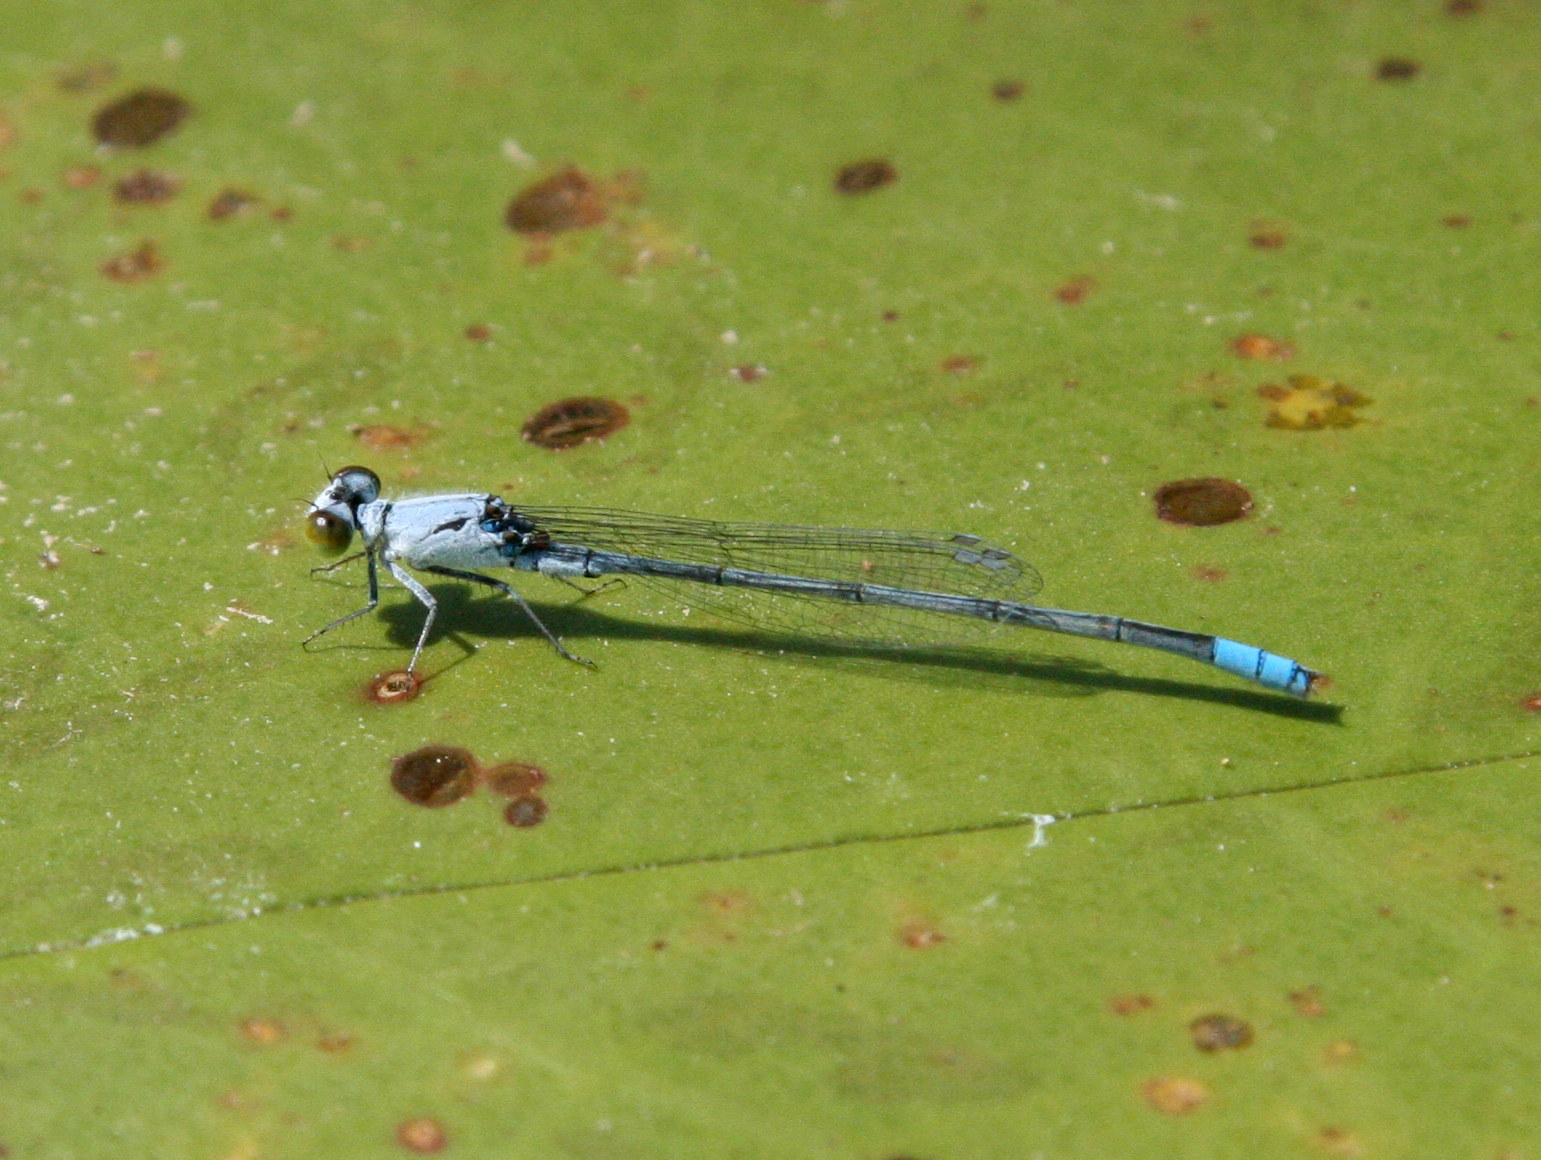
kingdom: Animalia
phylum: Arthropoda
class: Insecta
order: Odonata
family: Coenagrionidae
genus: Paracercion
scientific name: Paracercion calamorum
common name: Dusky lilysquatter
